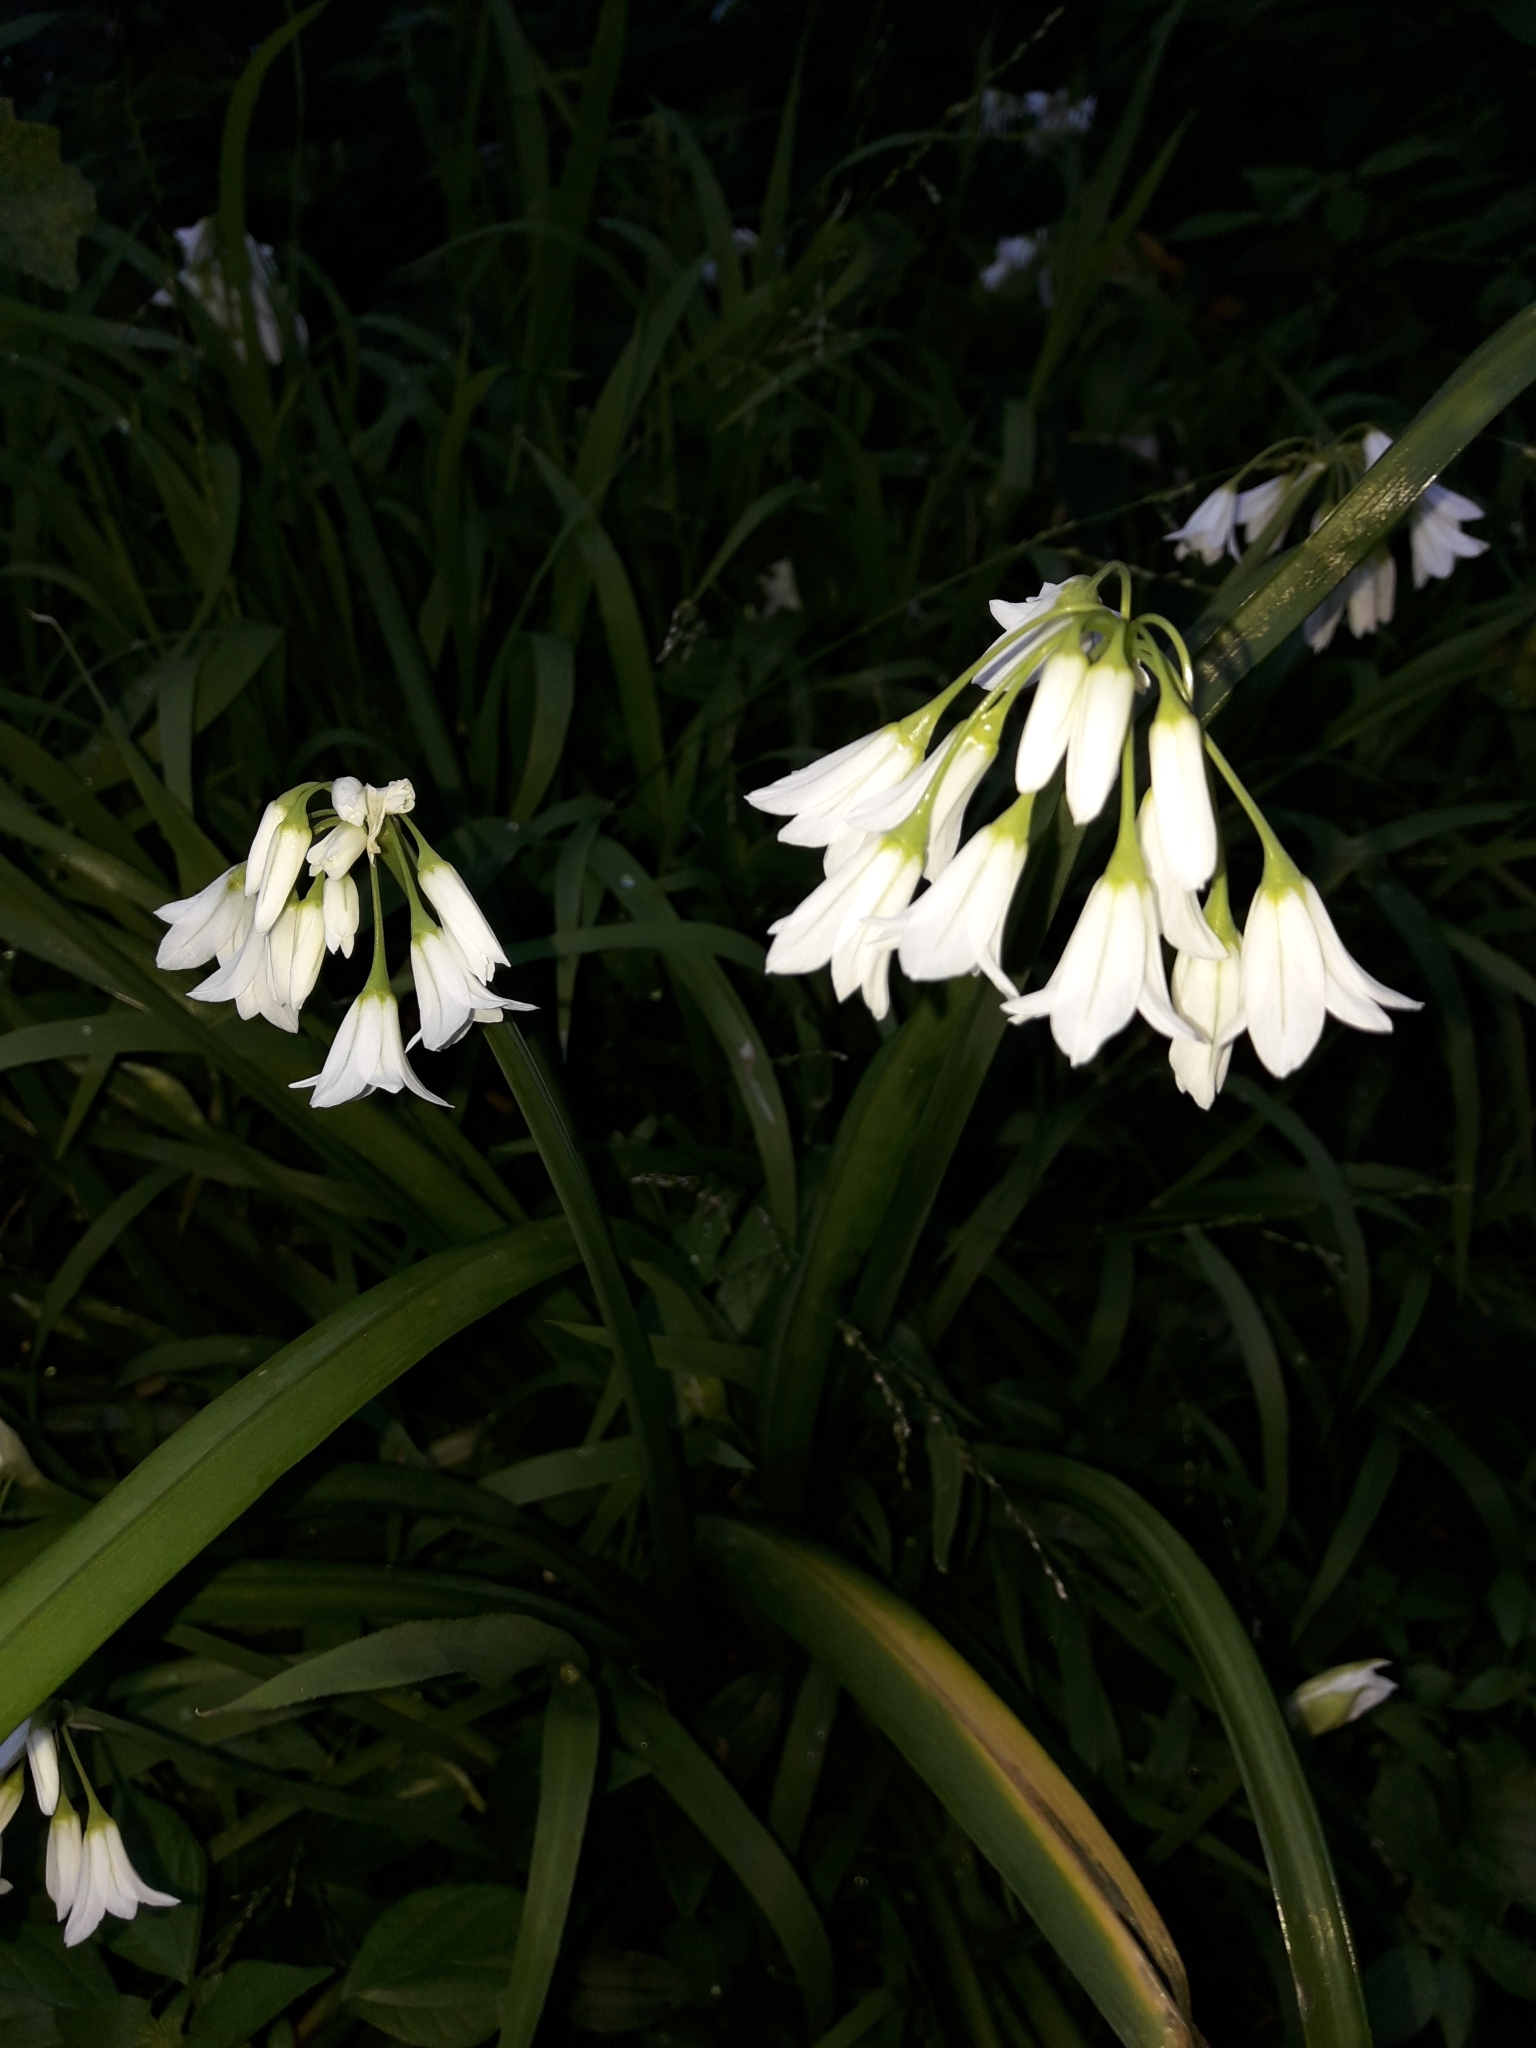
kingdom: Plantae
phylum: Tracheophyta
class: Liliopsida
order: Asparagales
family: Amaryllidaceae
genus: Allium
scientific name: Allium triquetrum
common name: Three-cornered garlic
